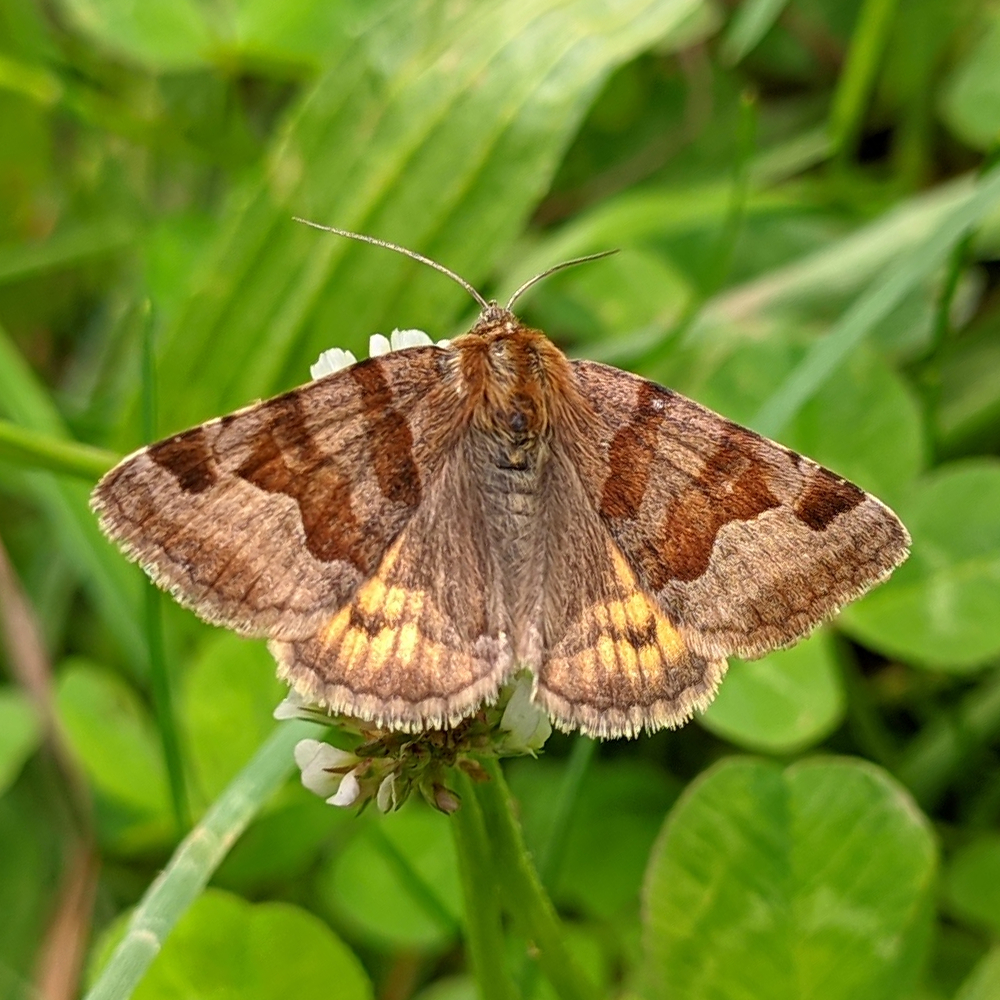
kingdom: Animalia
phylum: Arthropoda
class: Insecta
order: Lepidoptera
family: Erebidae
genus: Euclidia
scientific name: Euclidia glyphica
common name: Burnet companion
